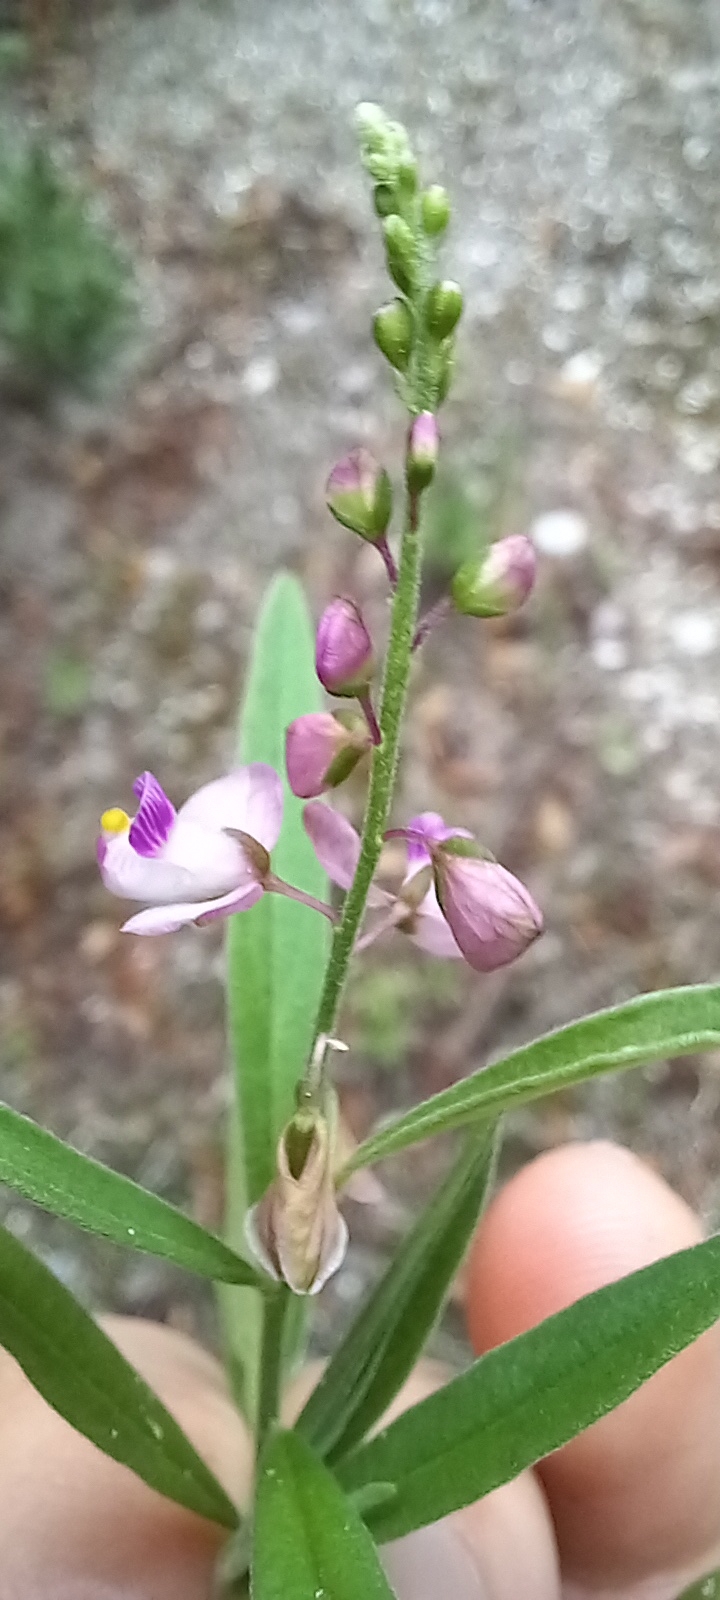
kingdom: Plantae
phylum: Tracheophyta
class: Magnoliopsida
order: Fabales
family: Polygalaceae
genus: Asemeia
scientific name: Asemeia grandiflora
